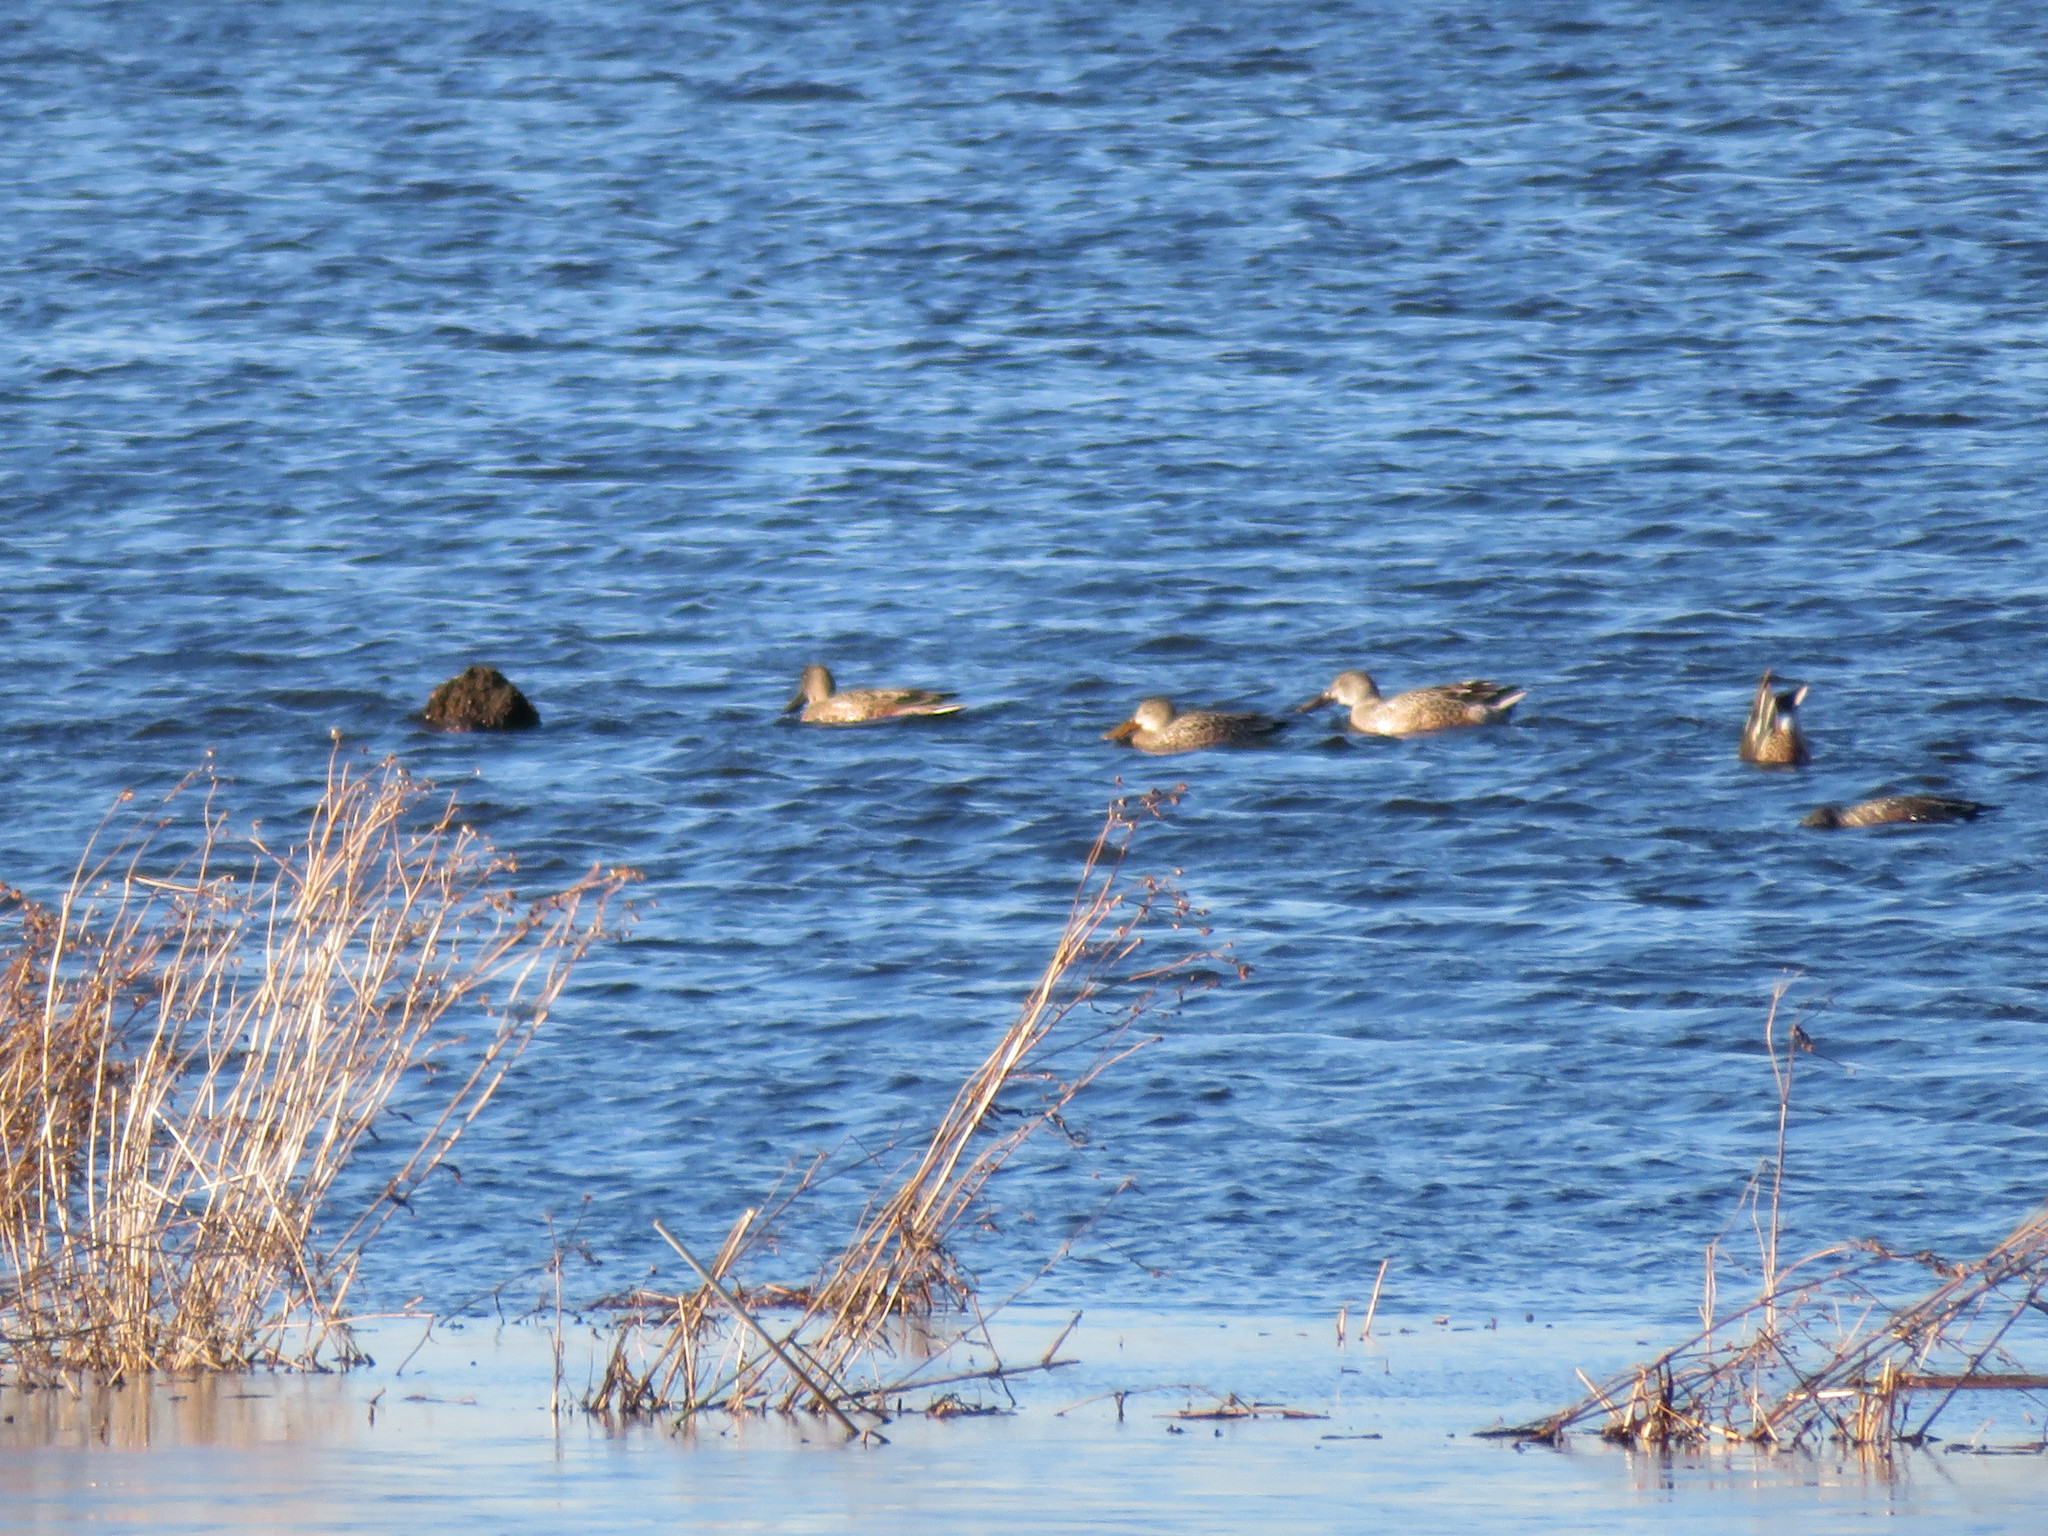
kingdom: Animalia
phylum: Chordata
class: Aves
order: Anseriformes
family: Anatidae
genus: Spatula
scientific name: Spatula clypeata
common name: Northern shoveler
